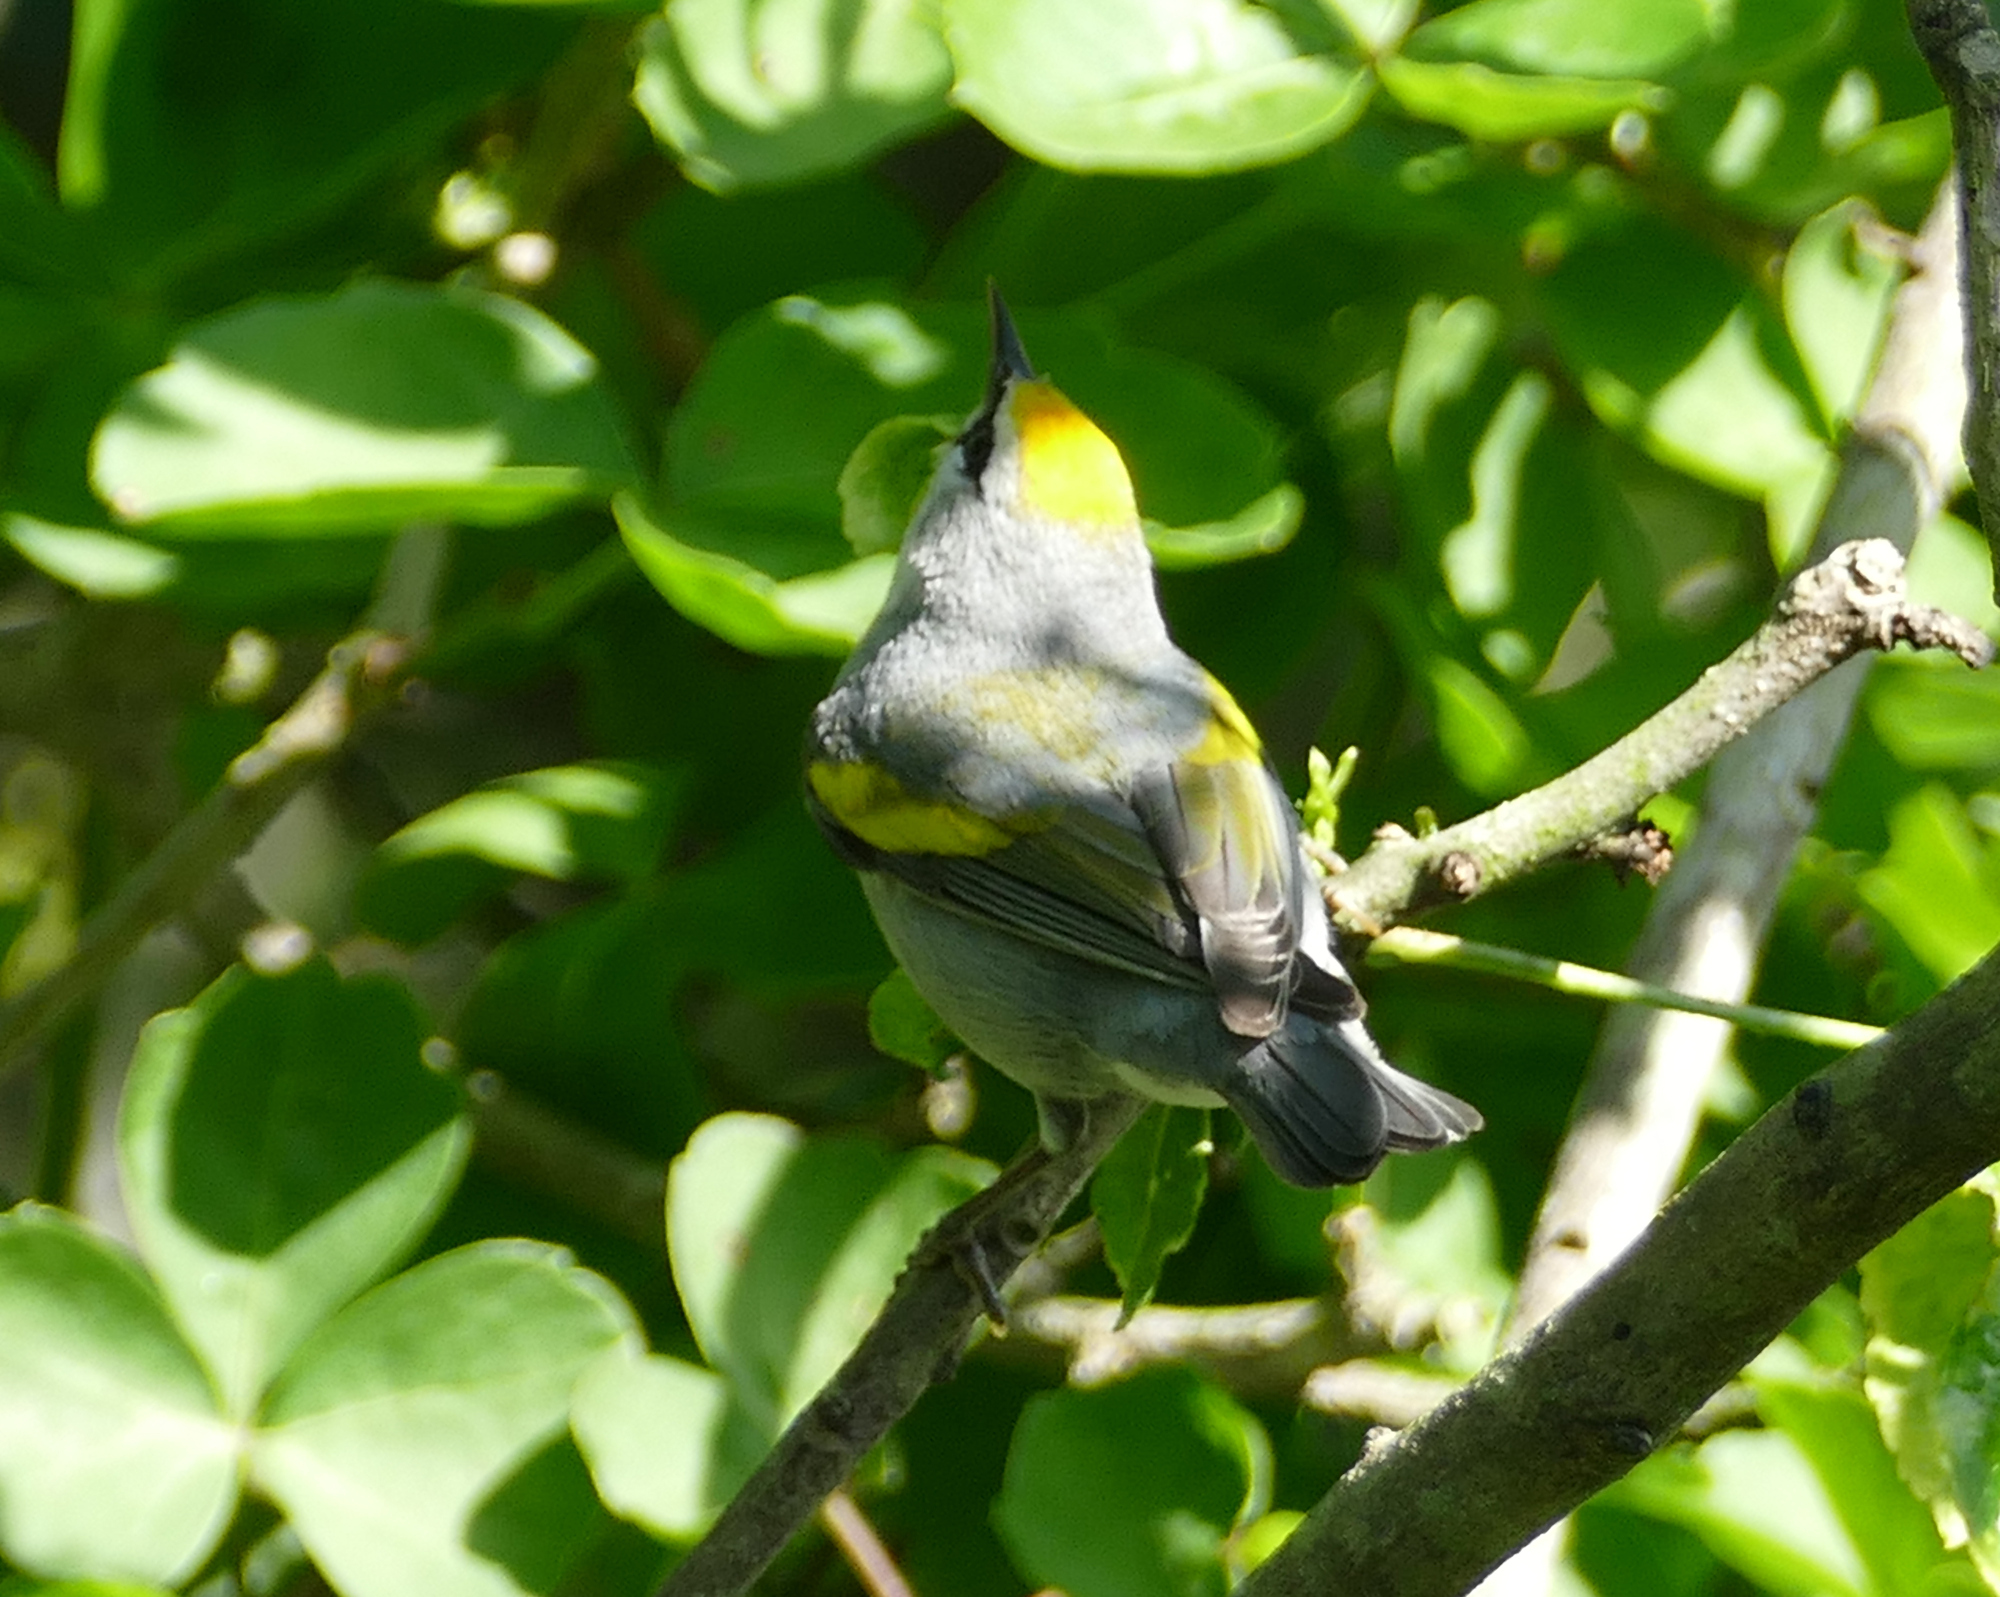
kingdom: Animalia
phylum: Chordata
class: Aves
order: Passeriformes
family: Parulidae
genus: Vermivora
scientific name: Vermivora
